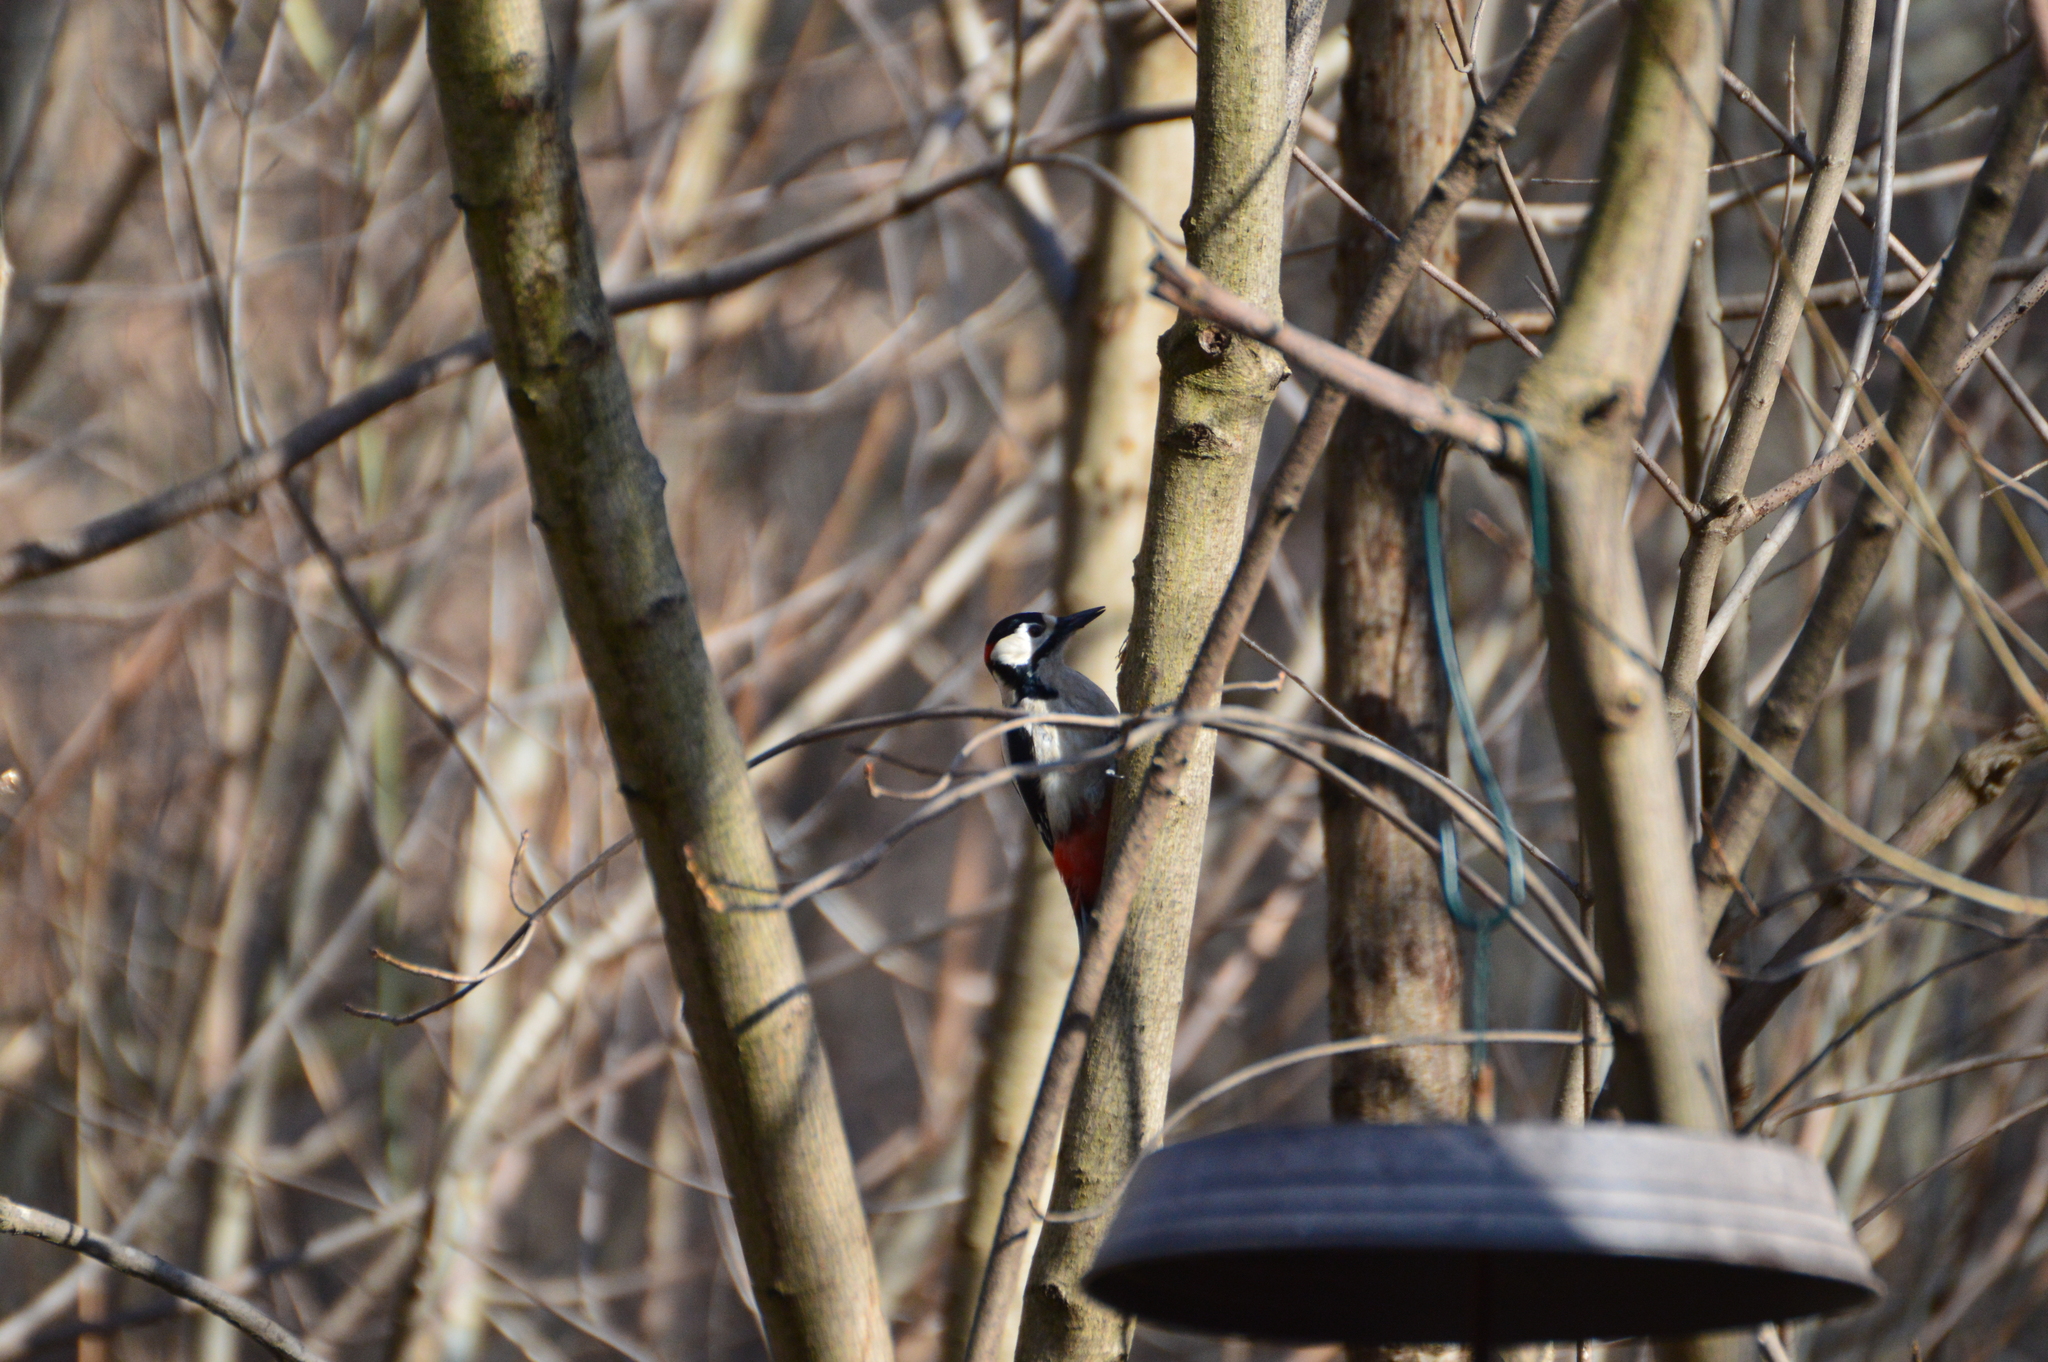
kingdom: Animalia
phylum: Chordata
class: Aves
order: Piciformes
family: Picidae
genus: Dendrocopos
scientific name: Dendrocopos major
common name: Great spotted woodpecker
